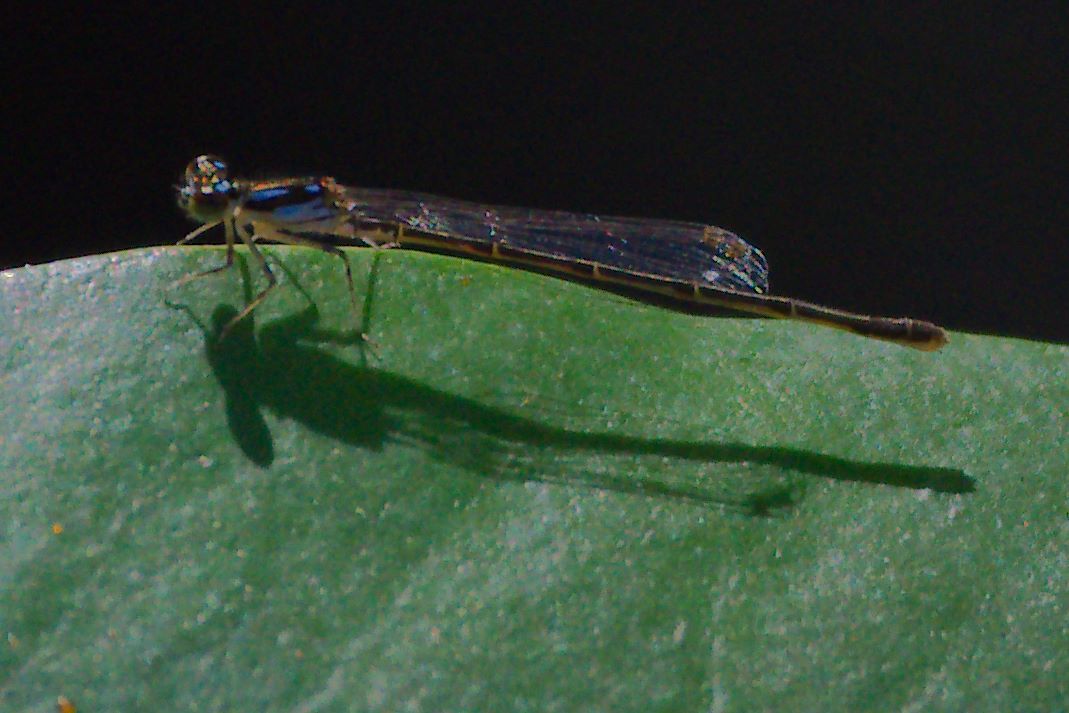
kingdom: Animalia
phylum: Arthropoda
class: Insecta
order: Odonata
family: Coenagrionidae
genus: Ischnura
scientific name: Ischnura posita
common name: Fragile forktail
